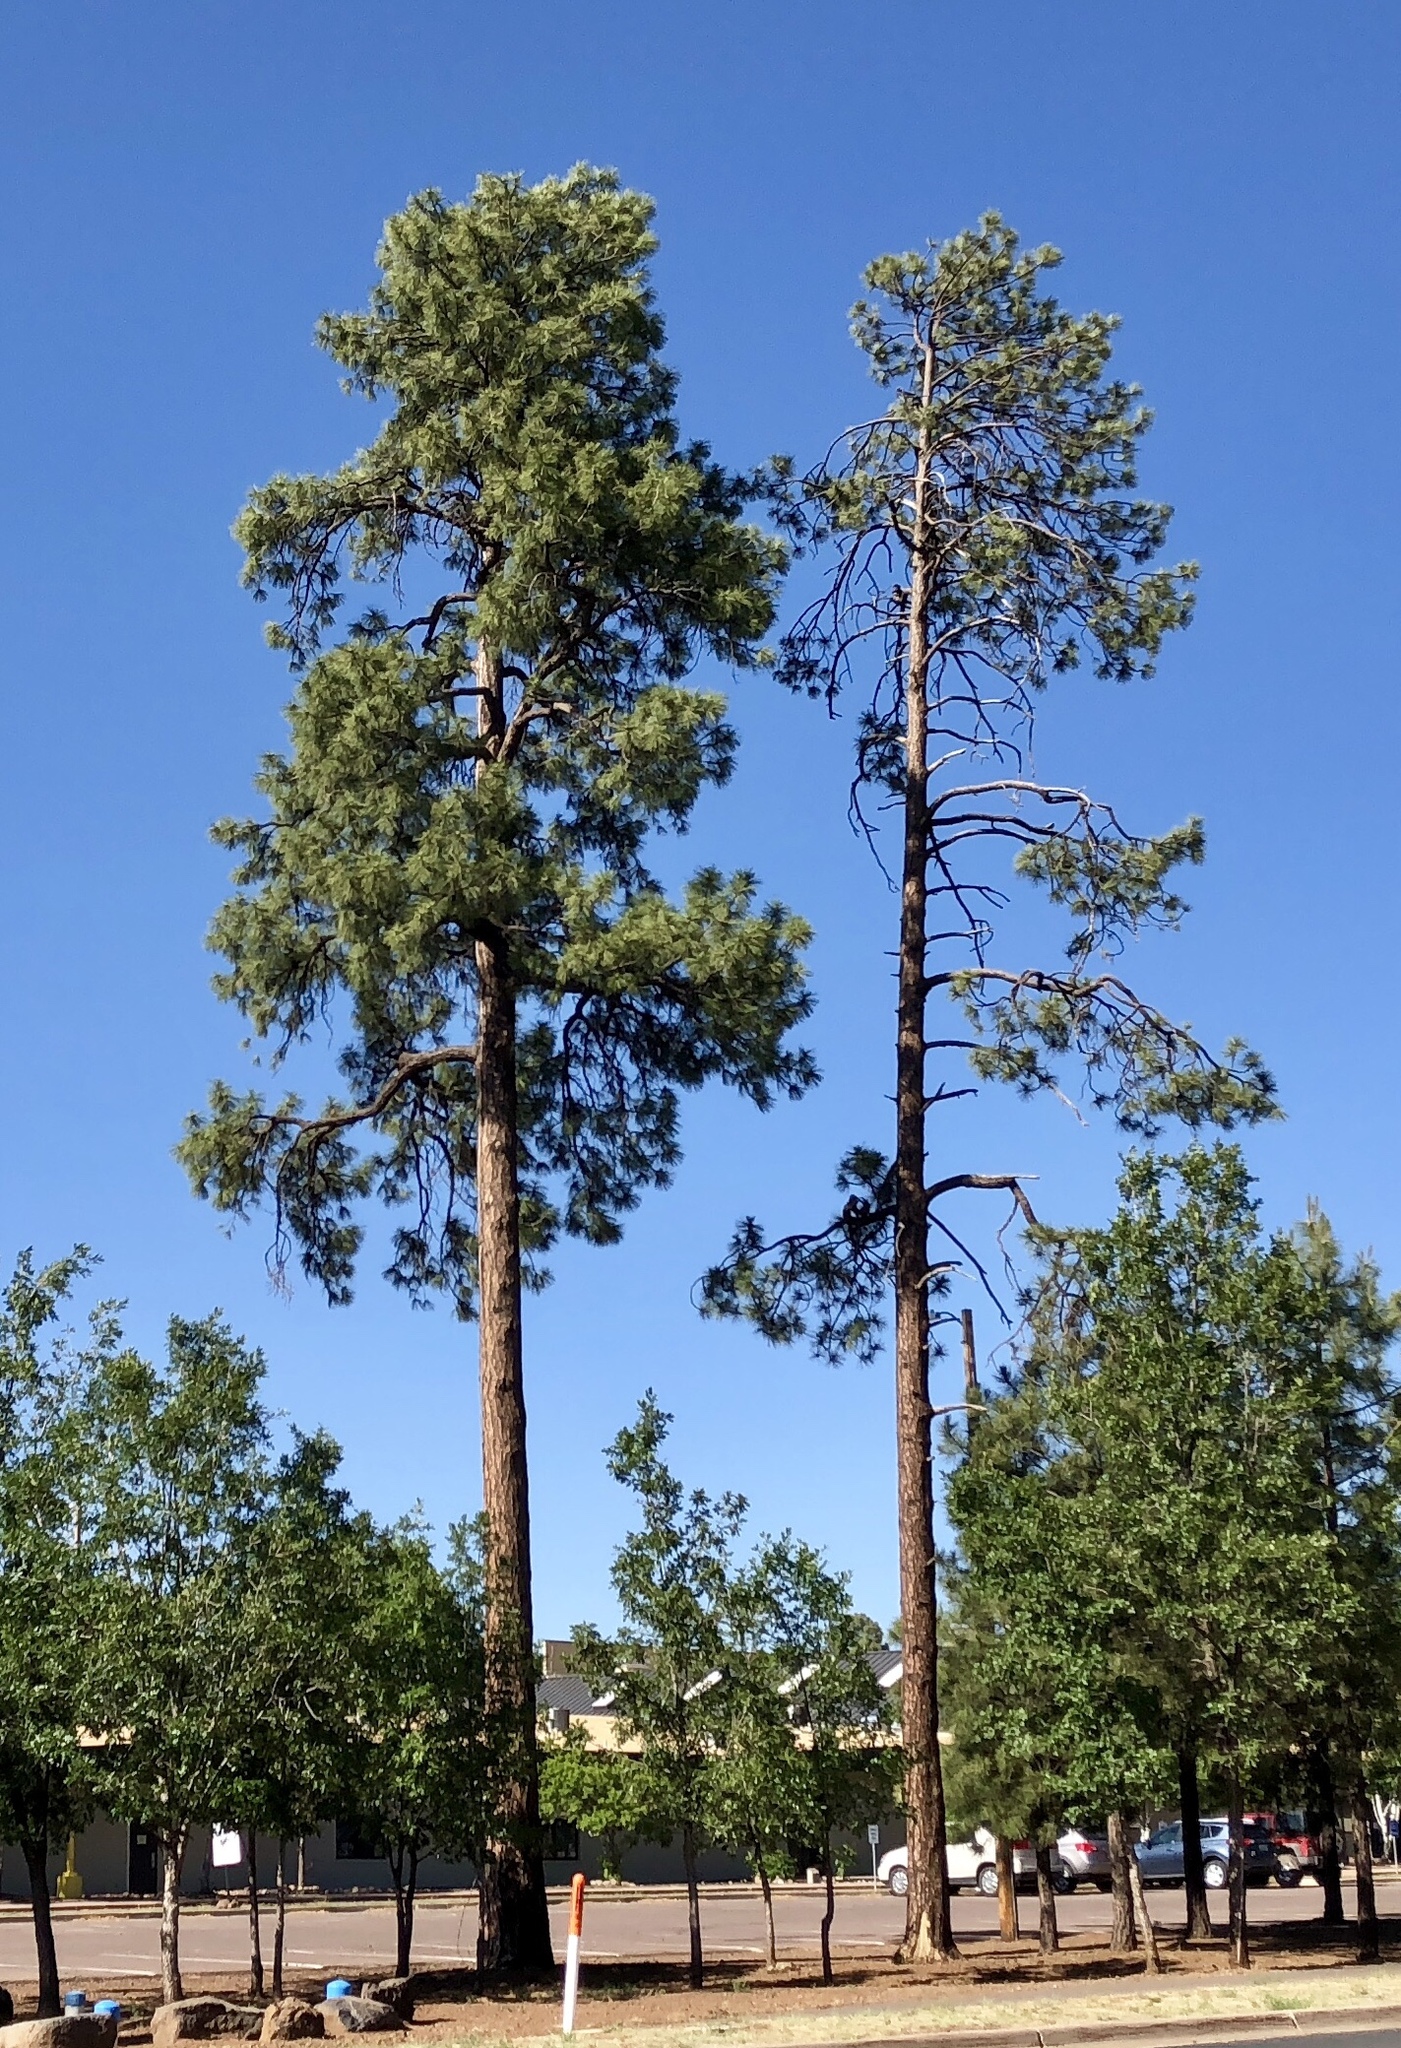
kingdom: Plantae
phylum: Tracheophyta
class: Pinopsida
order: Pinales
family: Pinaceae
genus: Pinus
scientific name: Pinus ponderosa
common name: Western yellow-pine
